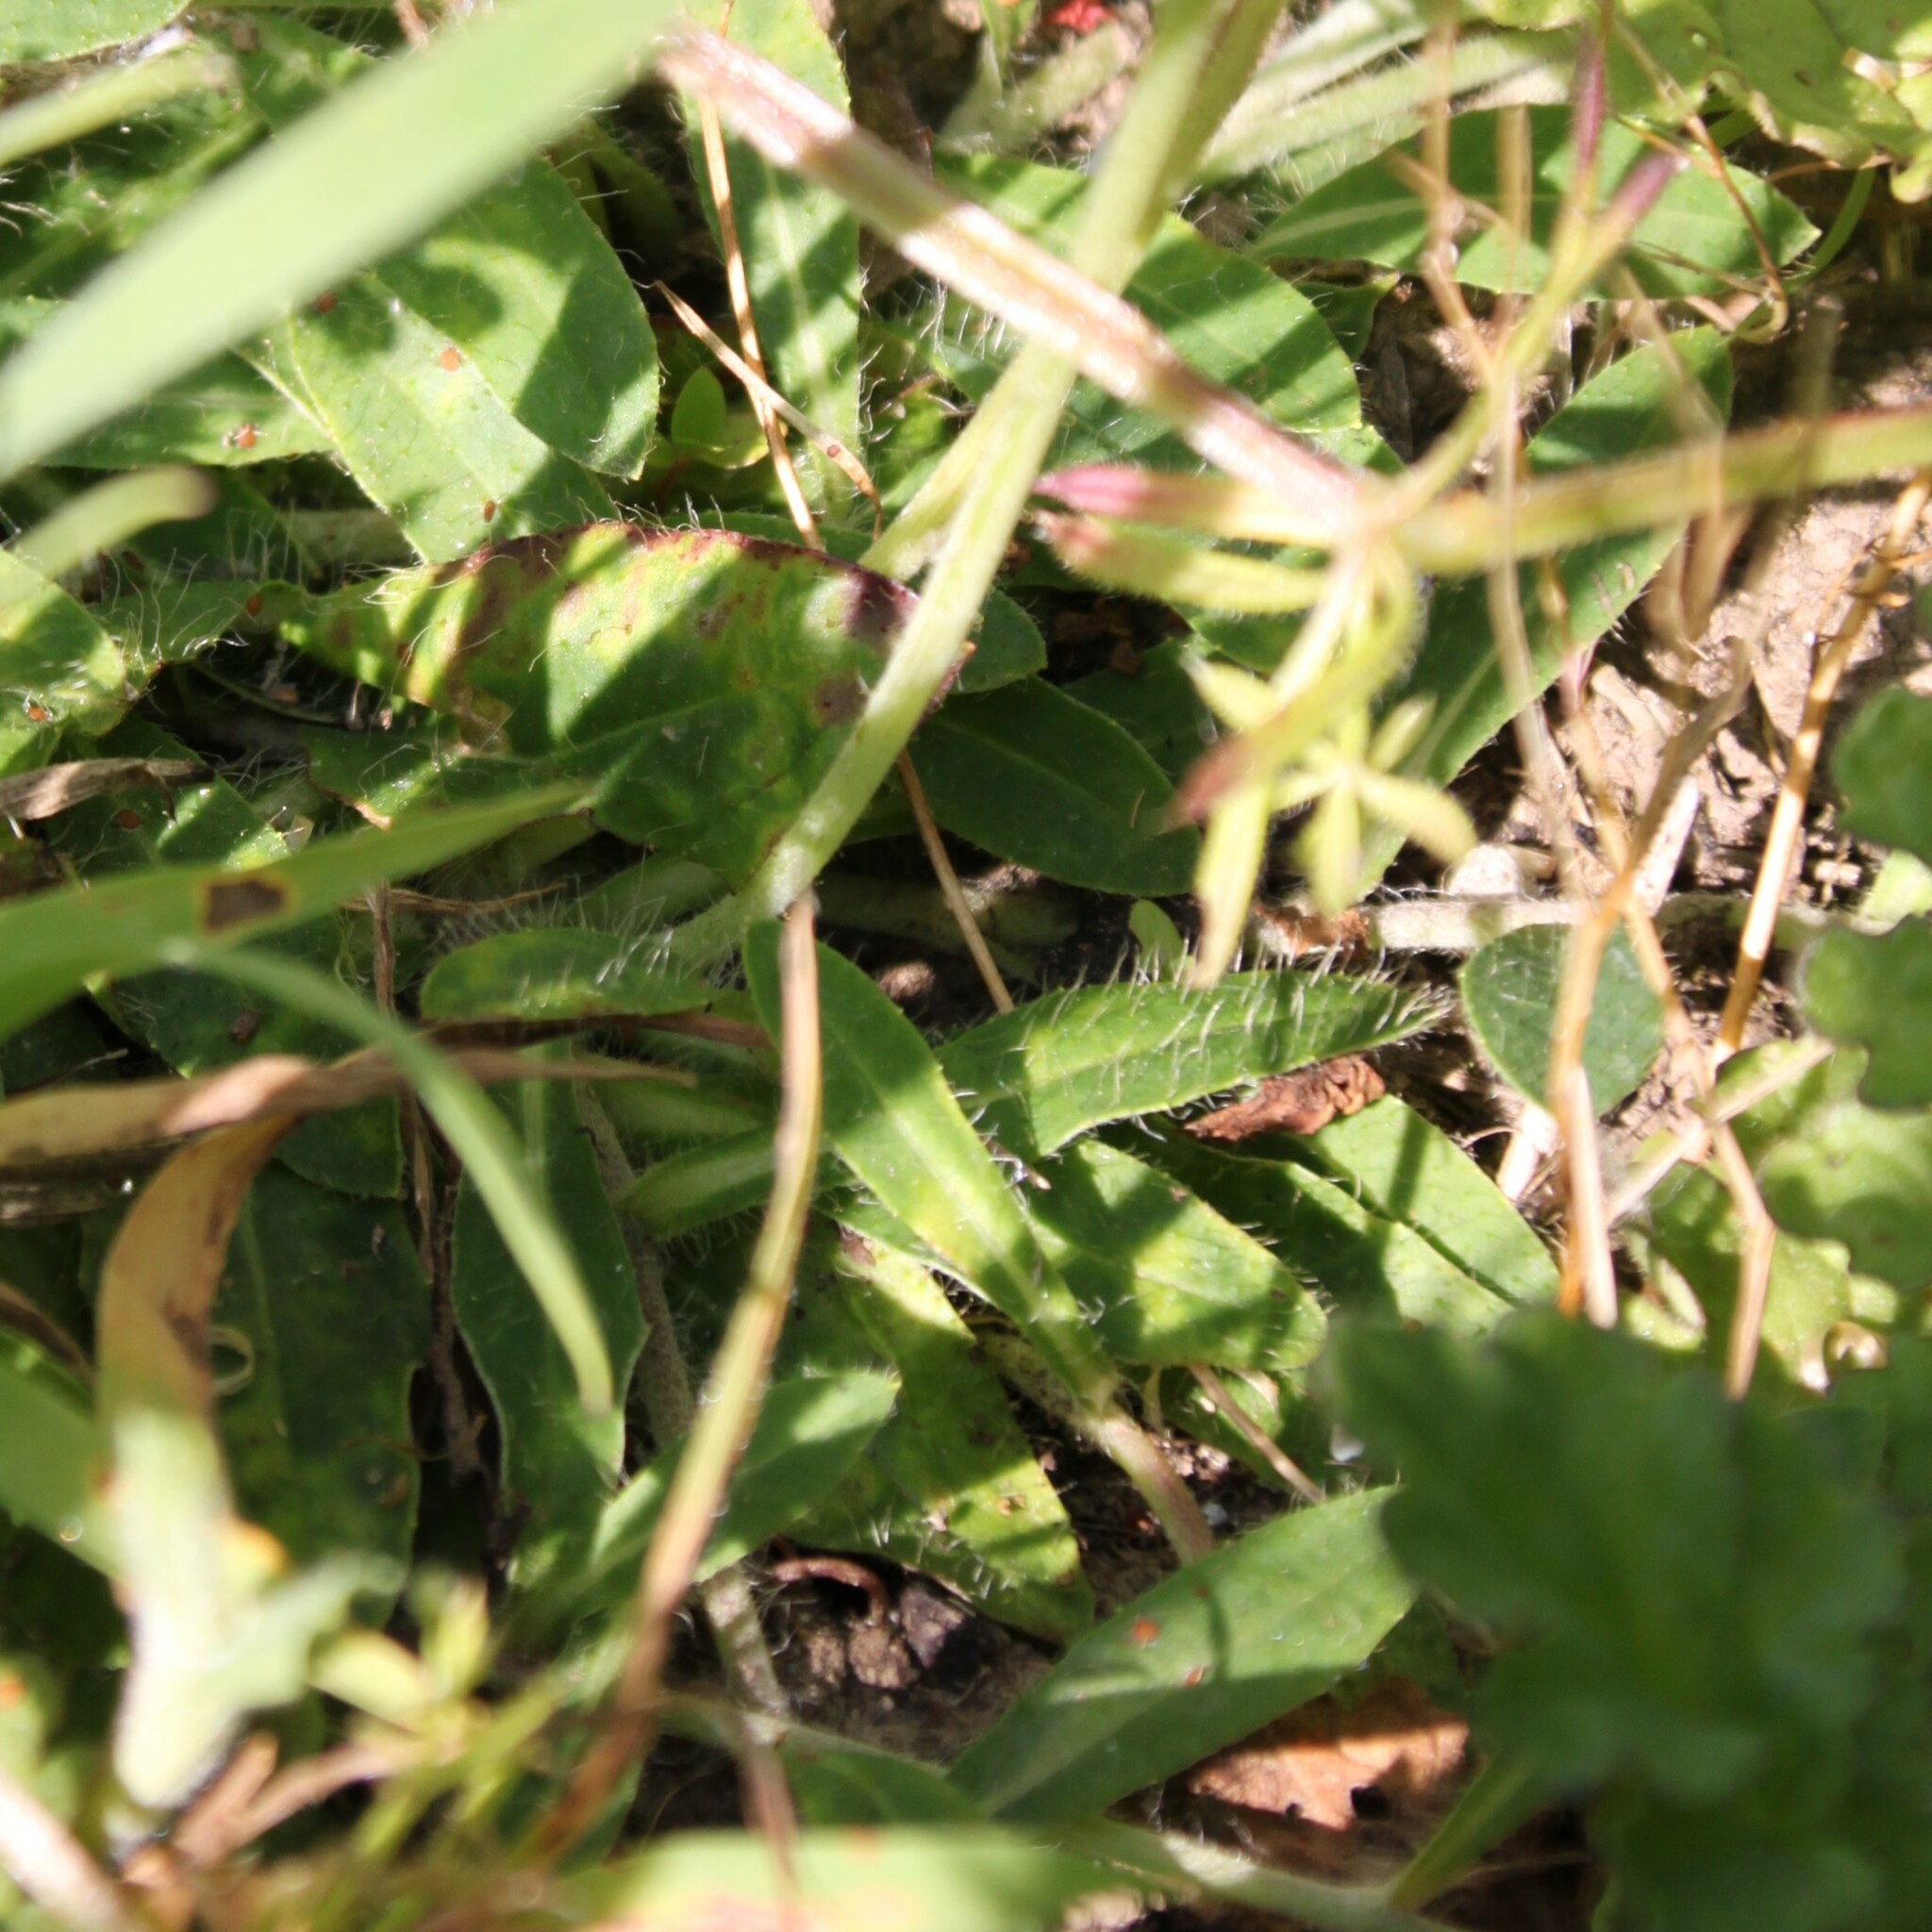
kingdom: Plantae
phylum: Tracheophyta
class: Magnoliopsida
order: Asterales
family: Asteraceae
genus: Pilosella
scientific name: Pilosella officinarum
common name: Mouse-ear hawkweed
